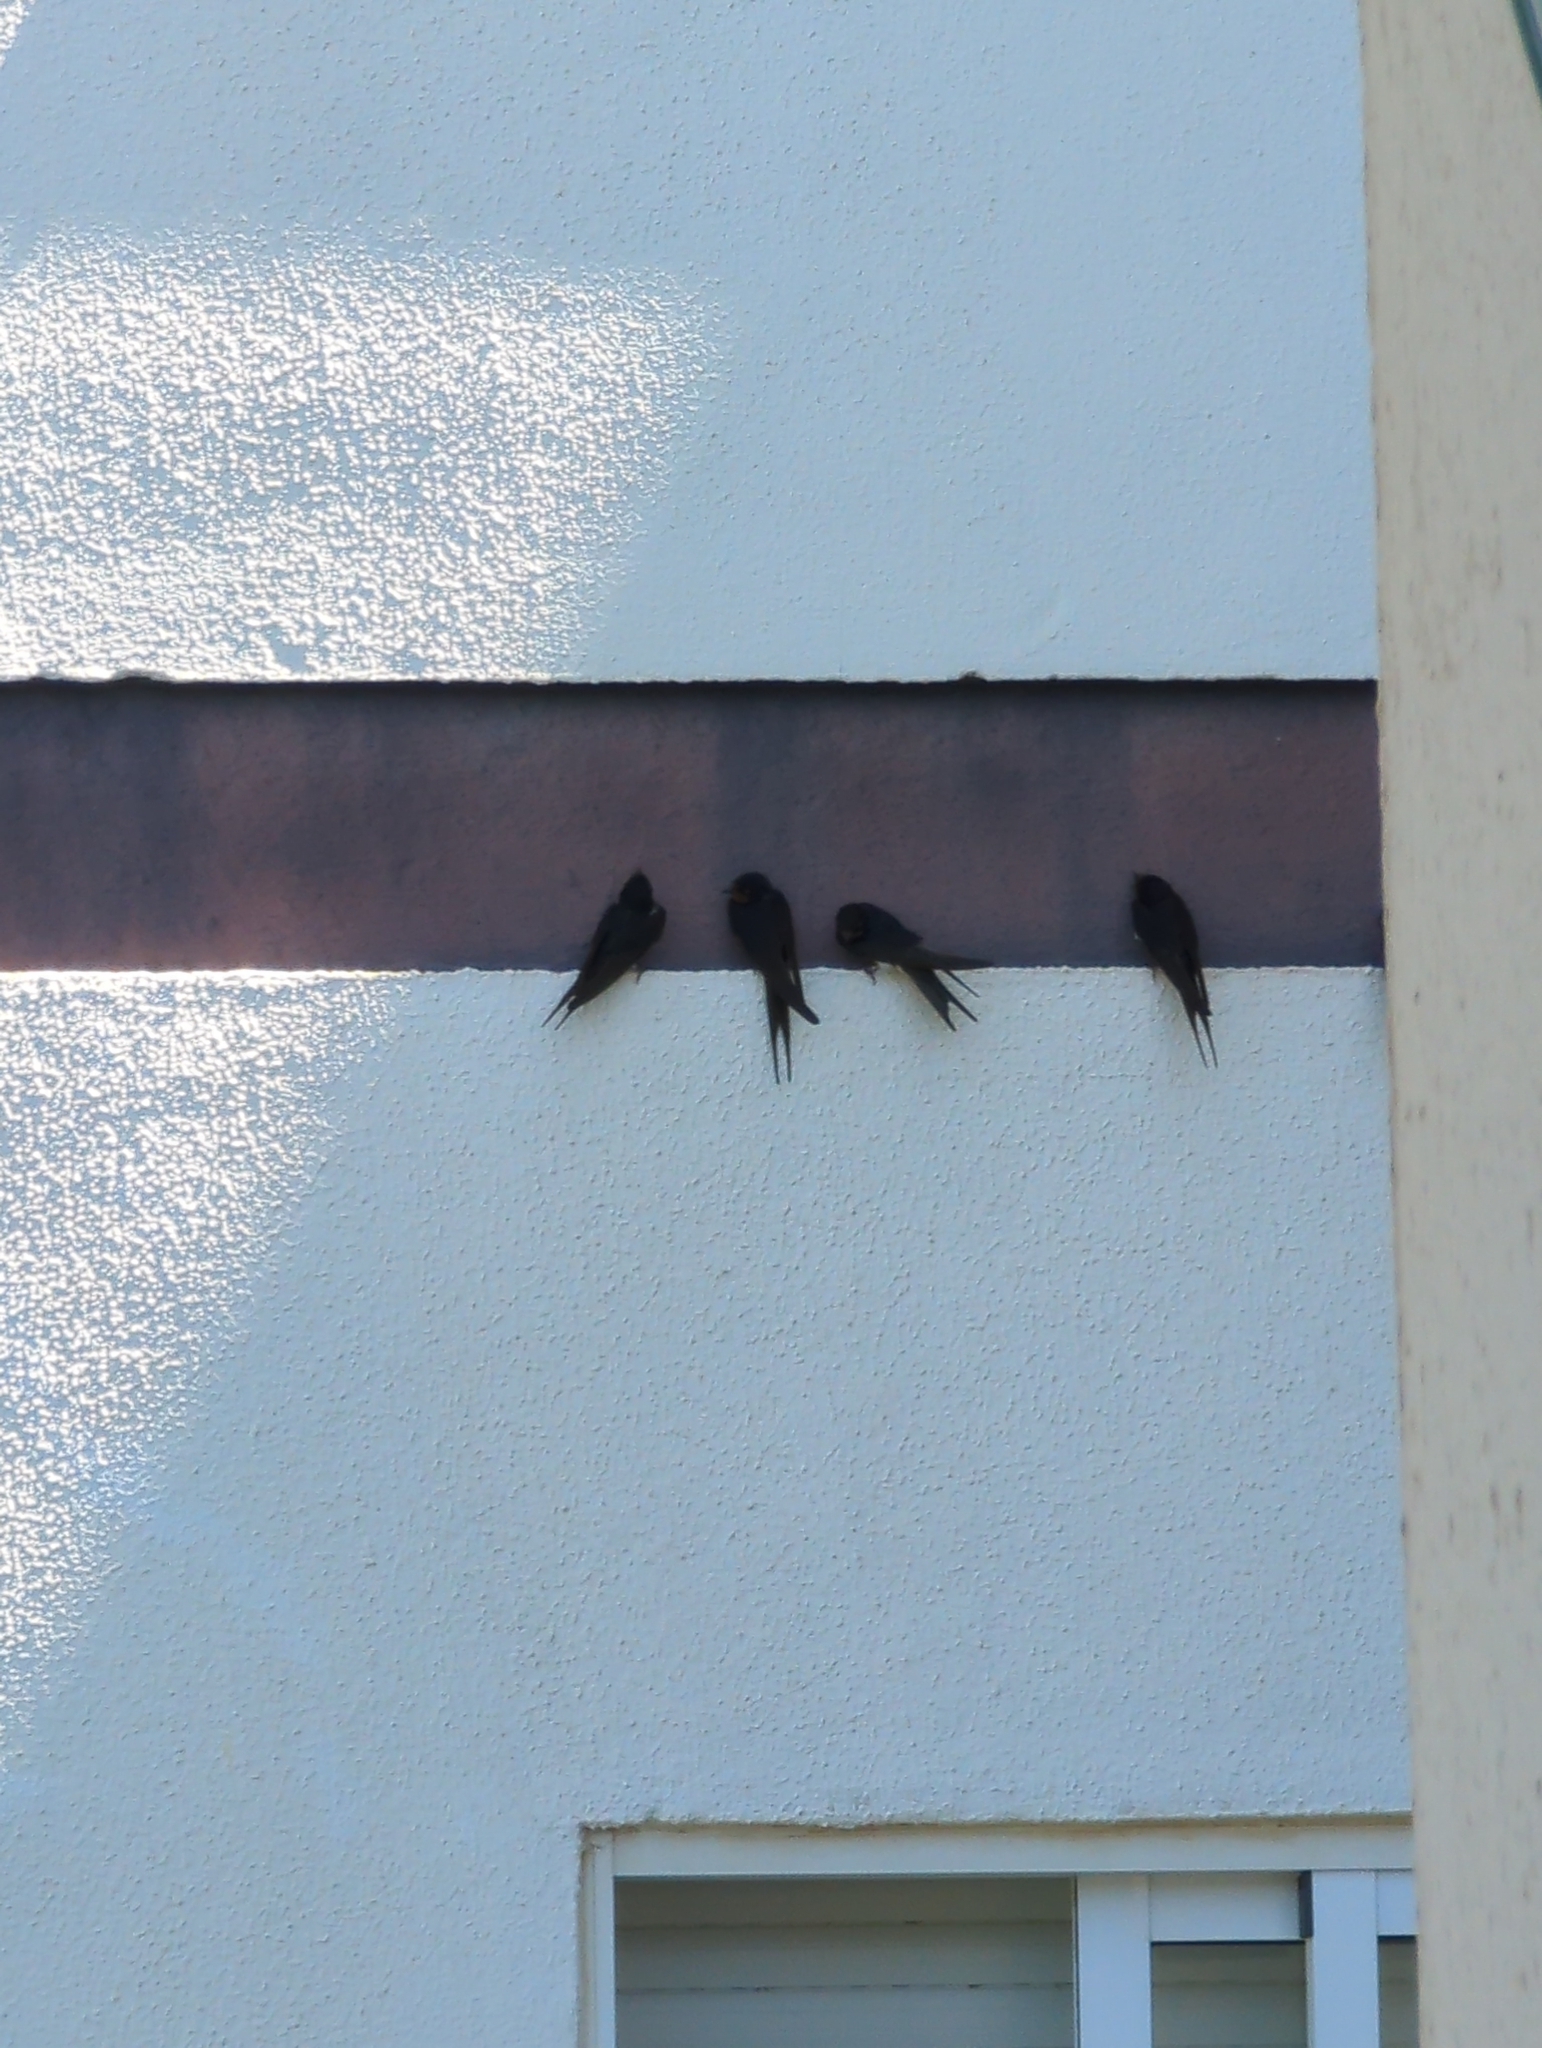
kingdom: Animalia
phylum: Chordata
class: Aves
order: Passeriformes
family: Hirundinidae
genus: Hirundo
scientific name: Hirundo rustica
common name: Barn swallow
